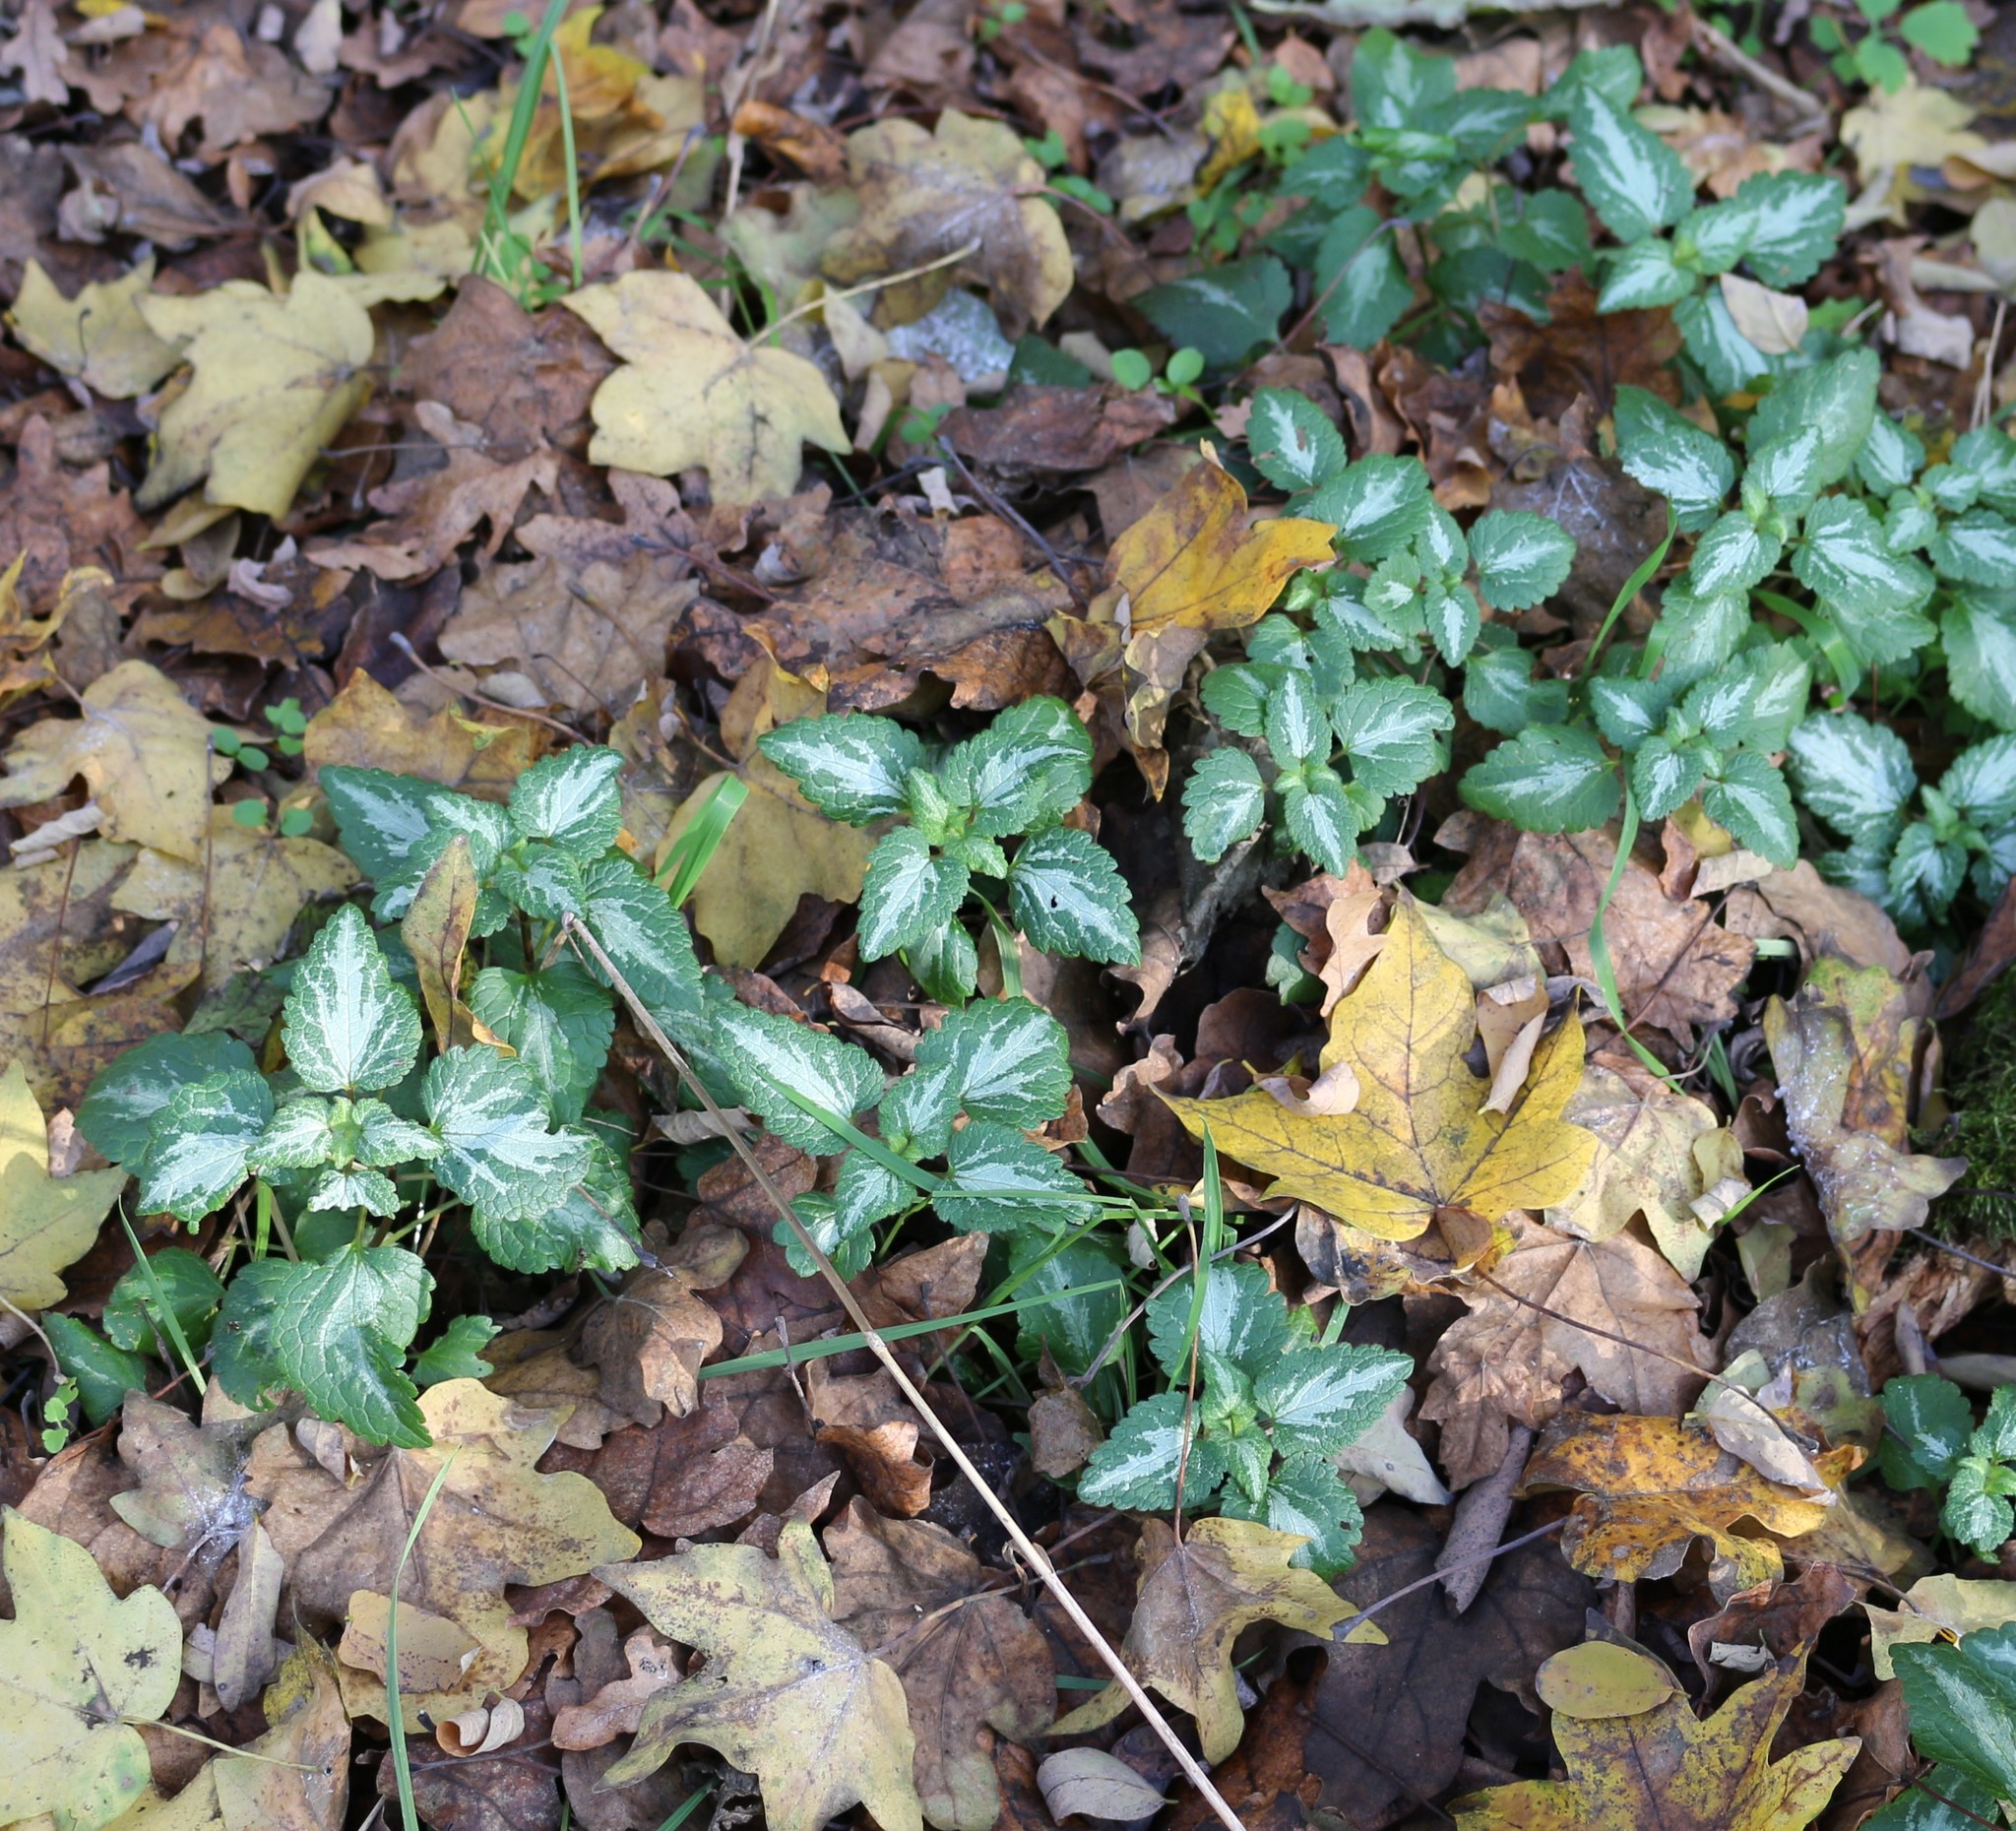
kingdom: Plantae
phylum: Tracheophyta
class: Magnoliopsida
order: Lamiales
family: Lamiaceae
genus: Lamium
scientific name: Lamium maculatum
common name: Spotted dead-nettle
